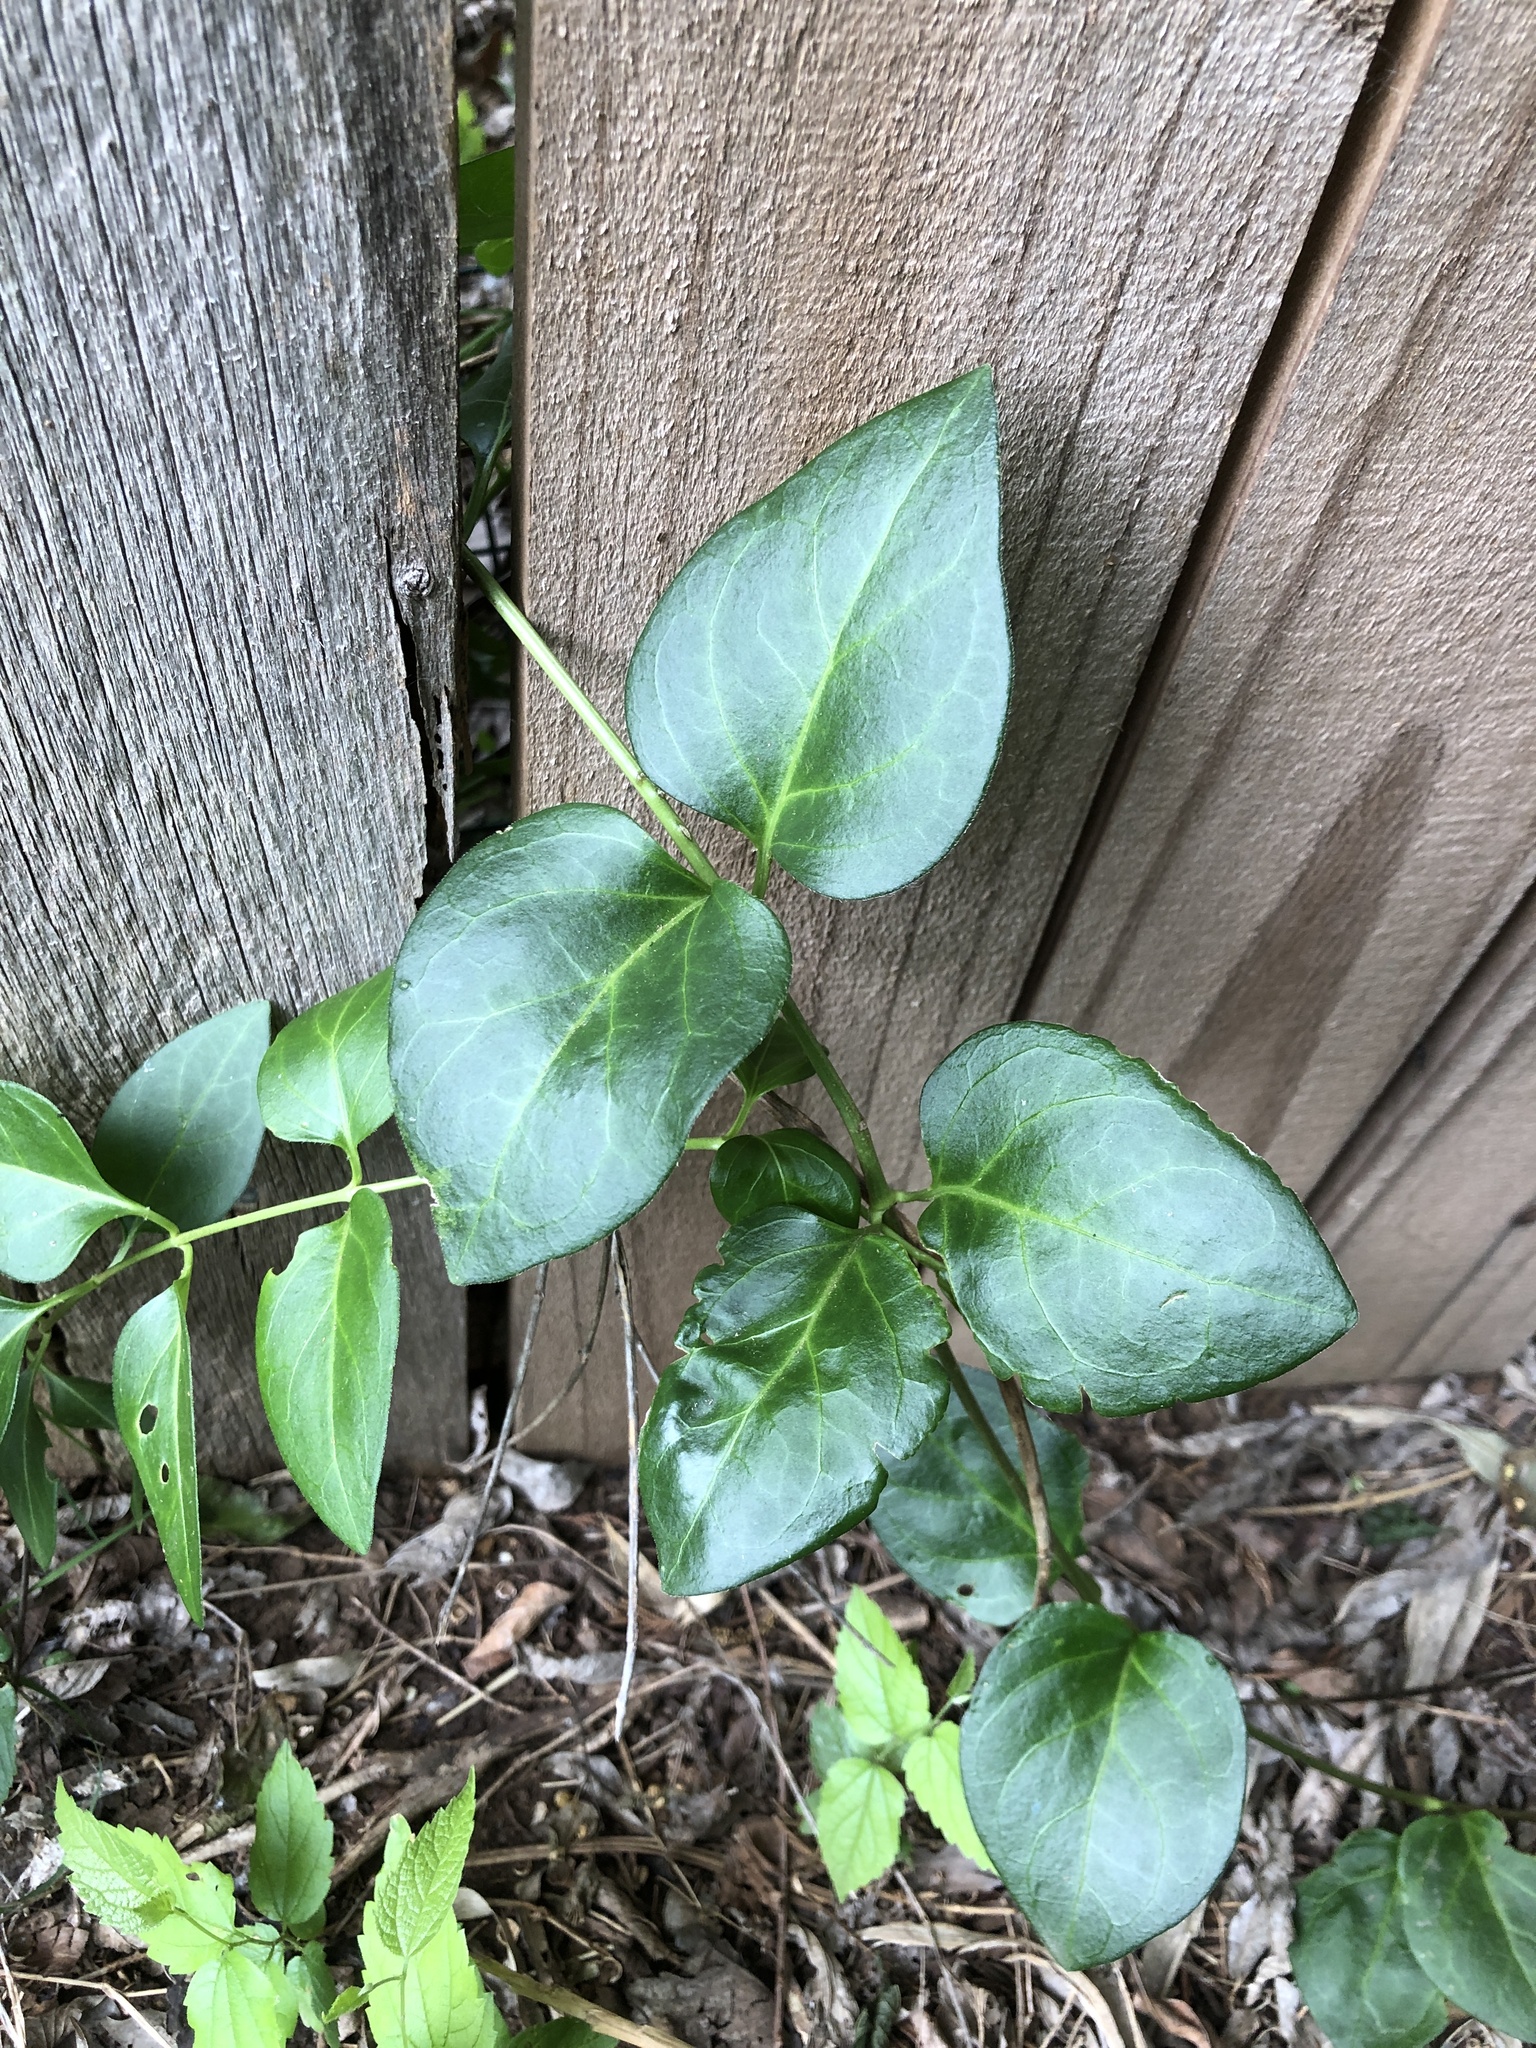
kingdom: Plantae
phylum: Tracheophyta
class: Magnoliopsida
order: Gentianales
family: Apocynaceae
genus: Vinca
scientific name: Vinca major
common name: Greater periwinkle
